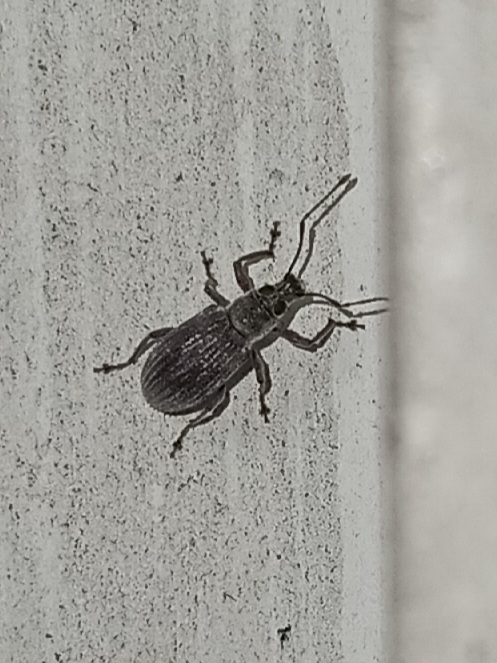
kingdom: Animalia
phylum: Arthropoda
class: Insecta
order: Coleoptera
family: Curculionidae
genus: Cyrtepistomus
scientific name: Cyrtepistomus castaneus
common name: Weevil
